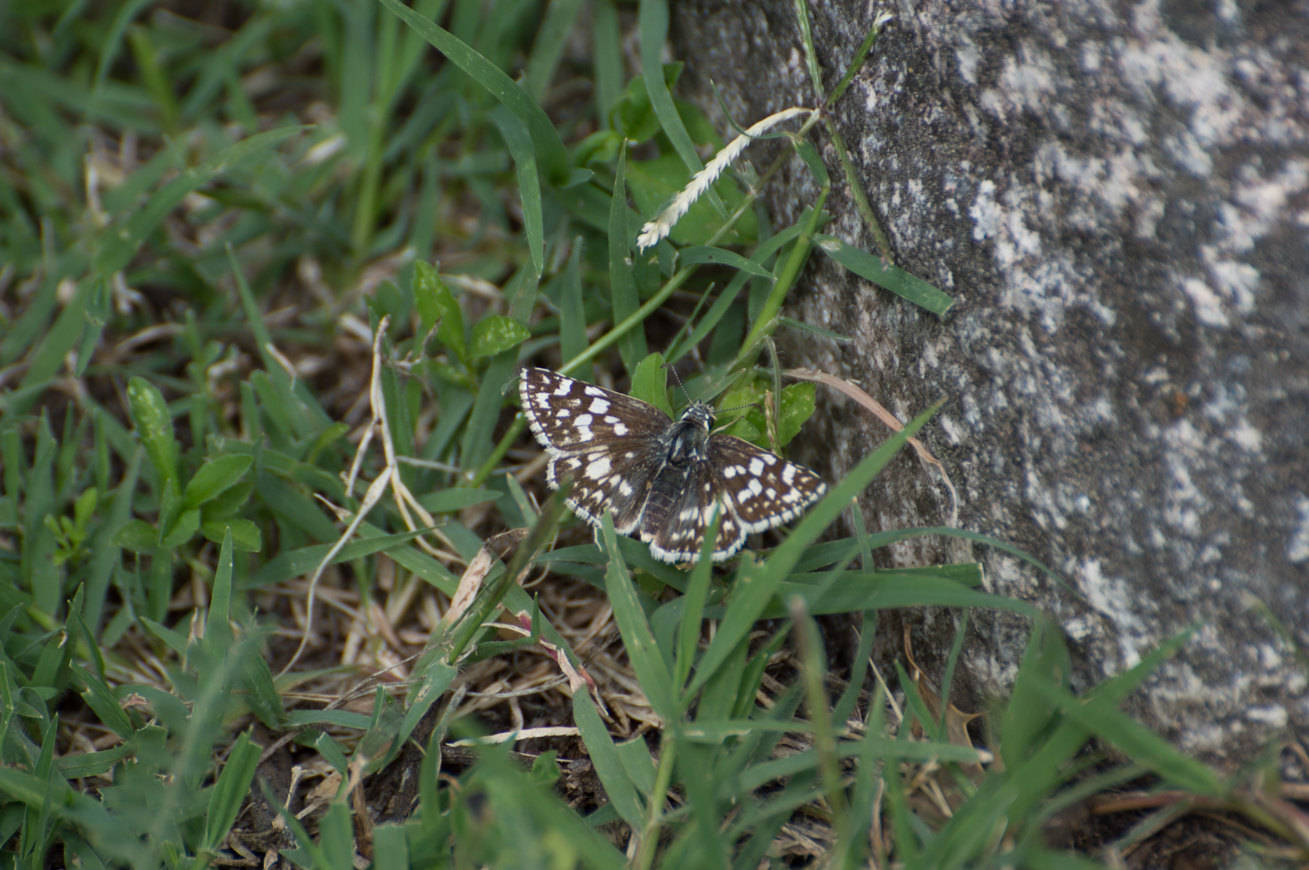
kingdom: Animalia
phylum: Arthropoda
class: Insecta
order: Lepidoptera
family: Hesperiidae
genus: Heliopetes
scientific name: Heliopetes americanus
